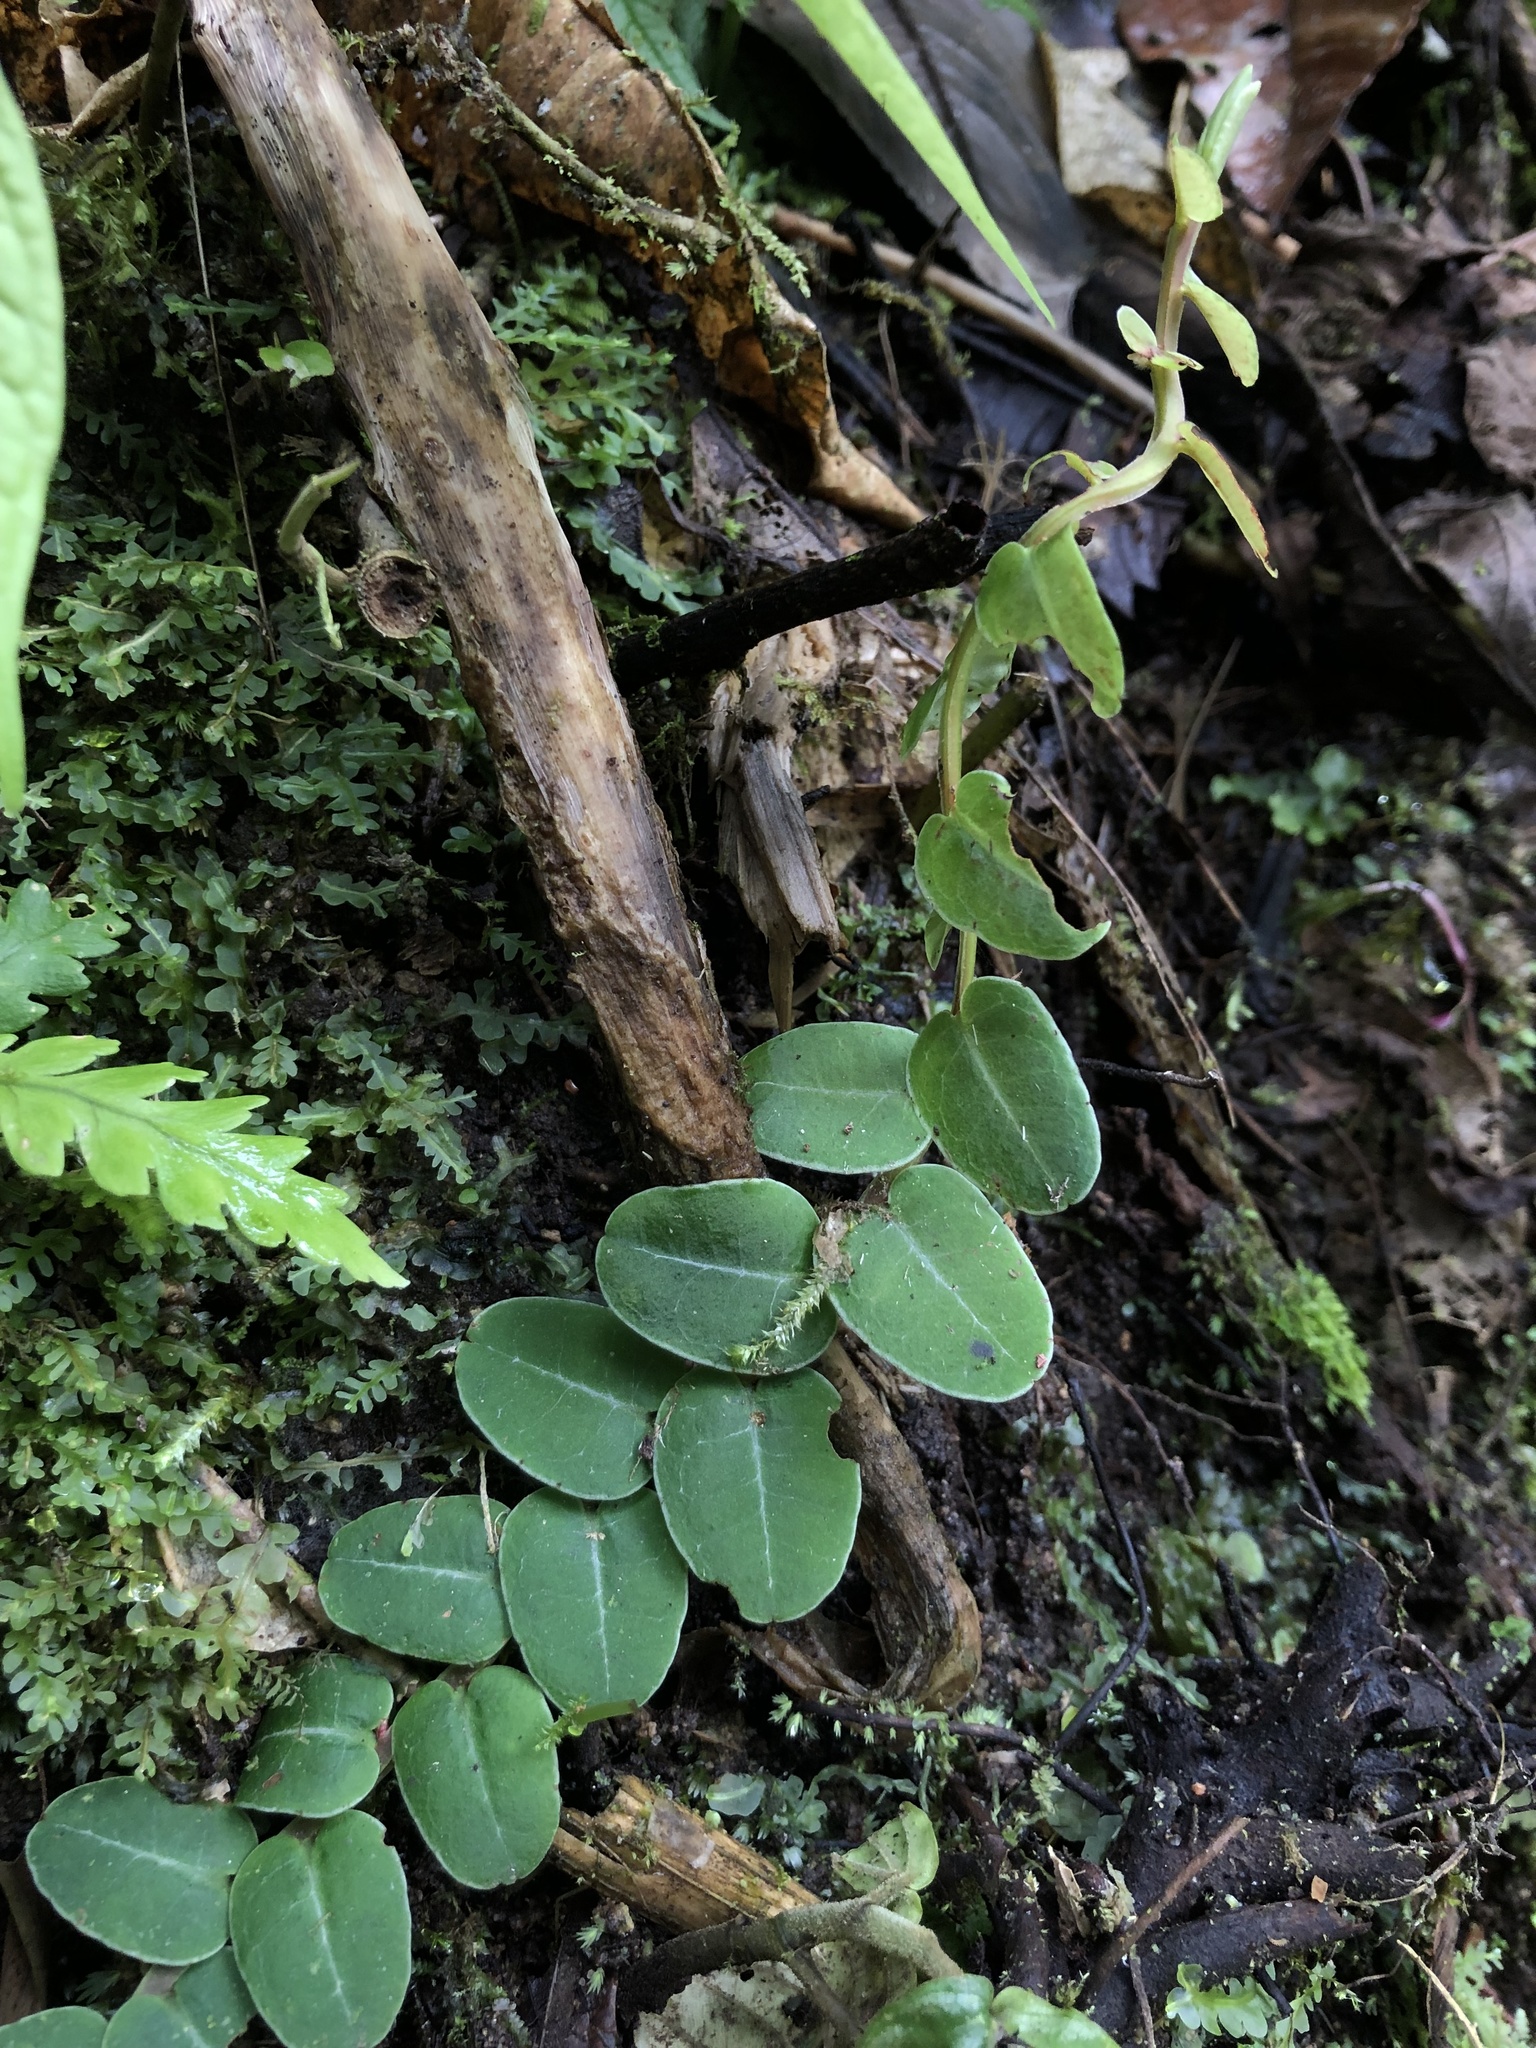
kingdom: Plantae
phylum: Tracheophyta
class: Magnoliopsida
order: Ericales
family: Marcgraviaceae
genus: Marcgravia
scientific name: Marcgravia brownei
